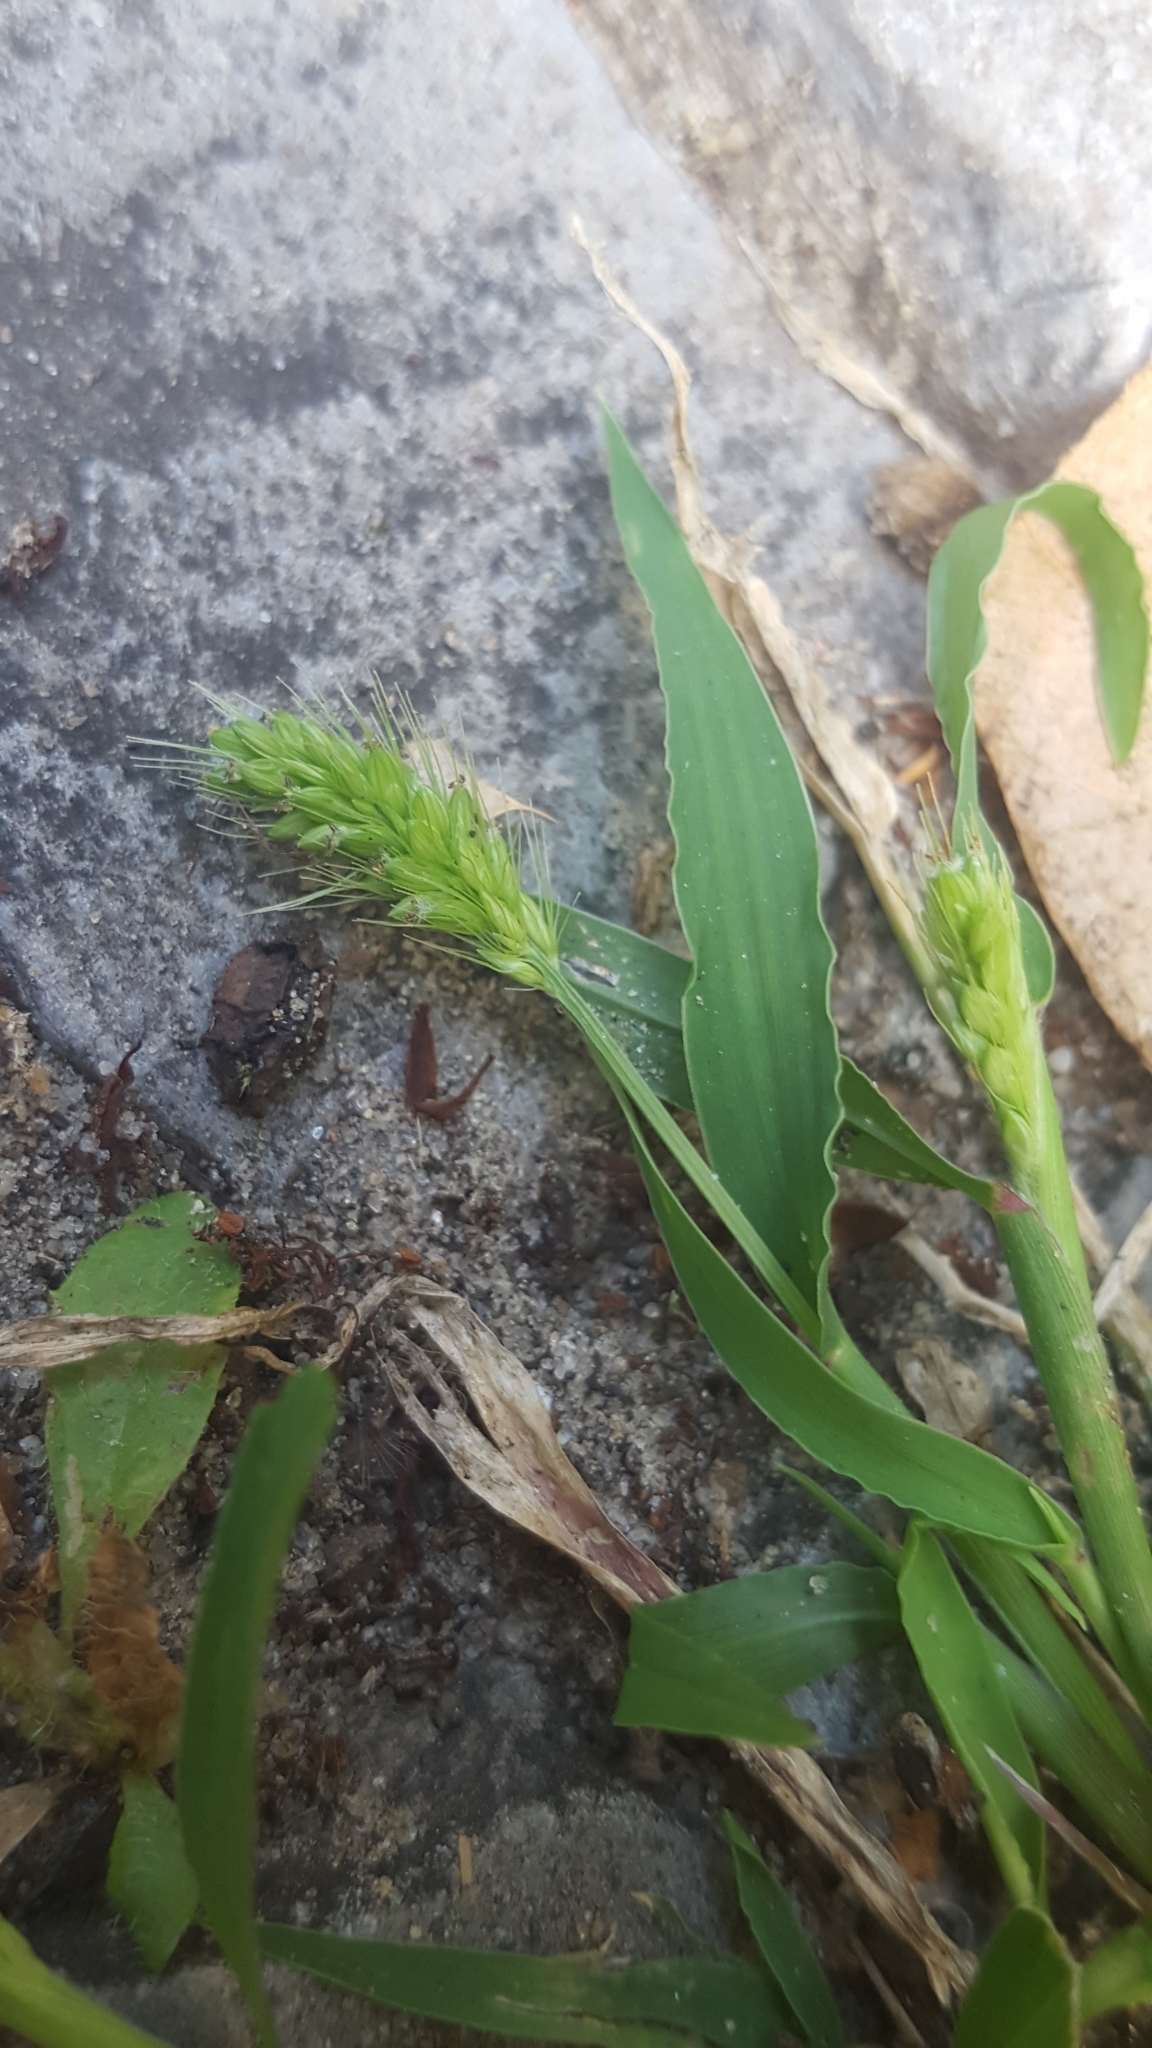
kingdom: Plantae
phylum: Tracheophyta
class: Liliopsida
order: Poales
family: Poaceae
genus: Setaria
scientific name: Setaria viridis
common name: Green bristlegrass
